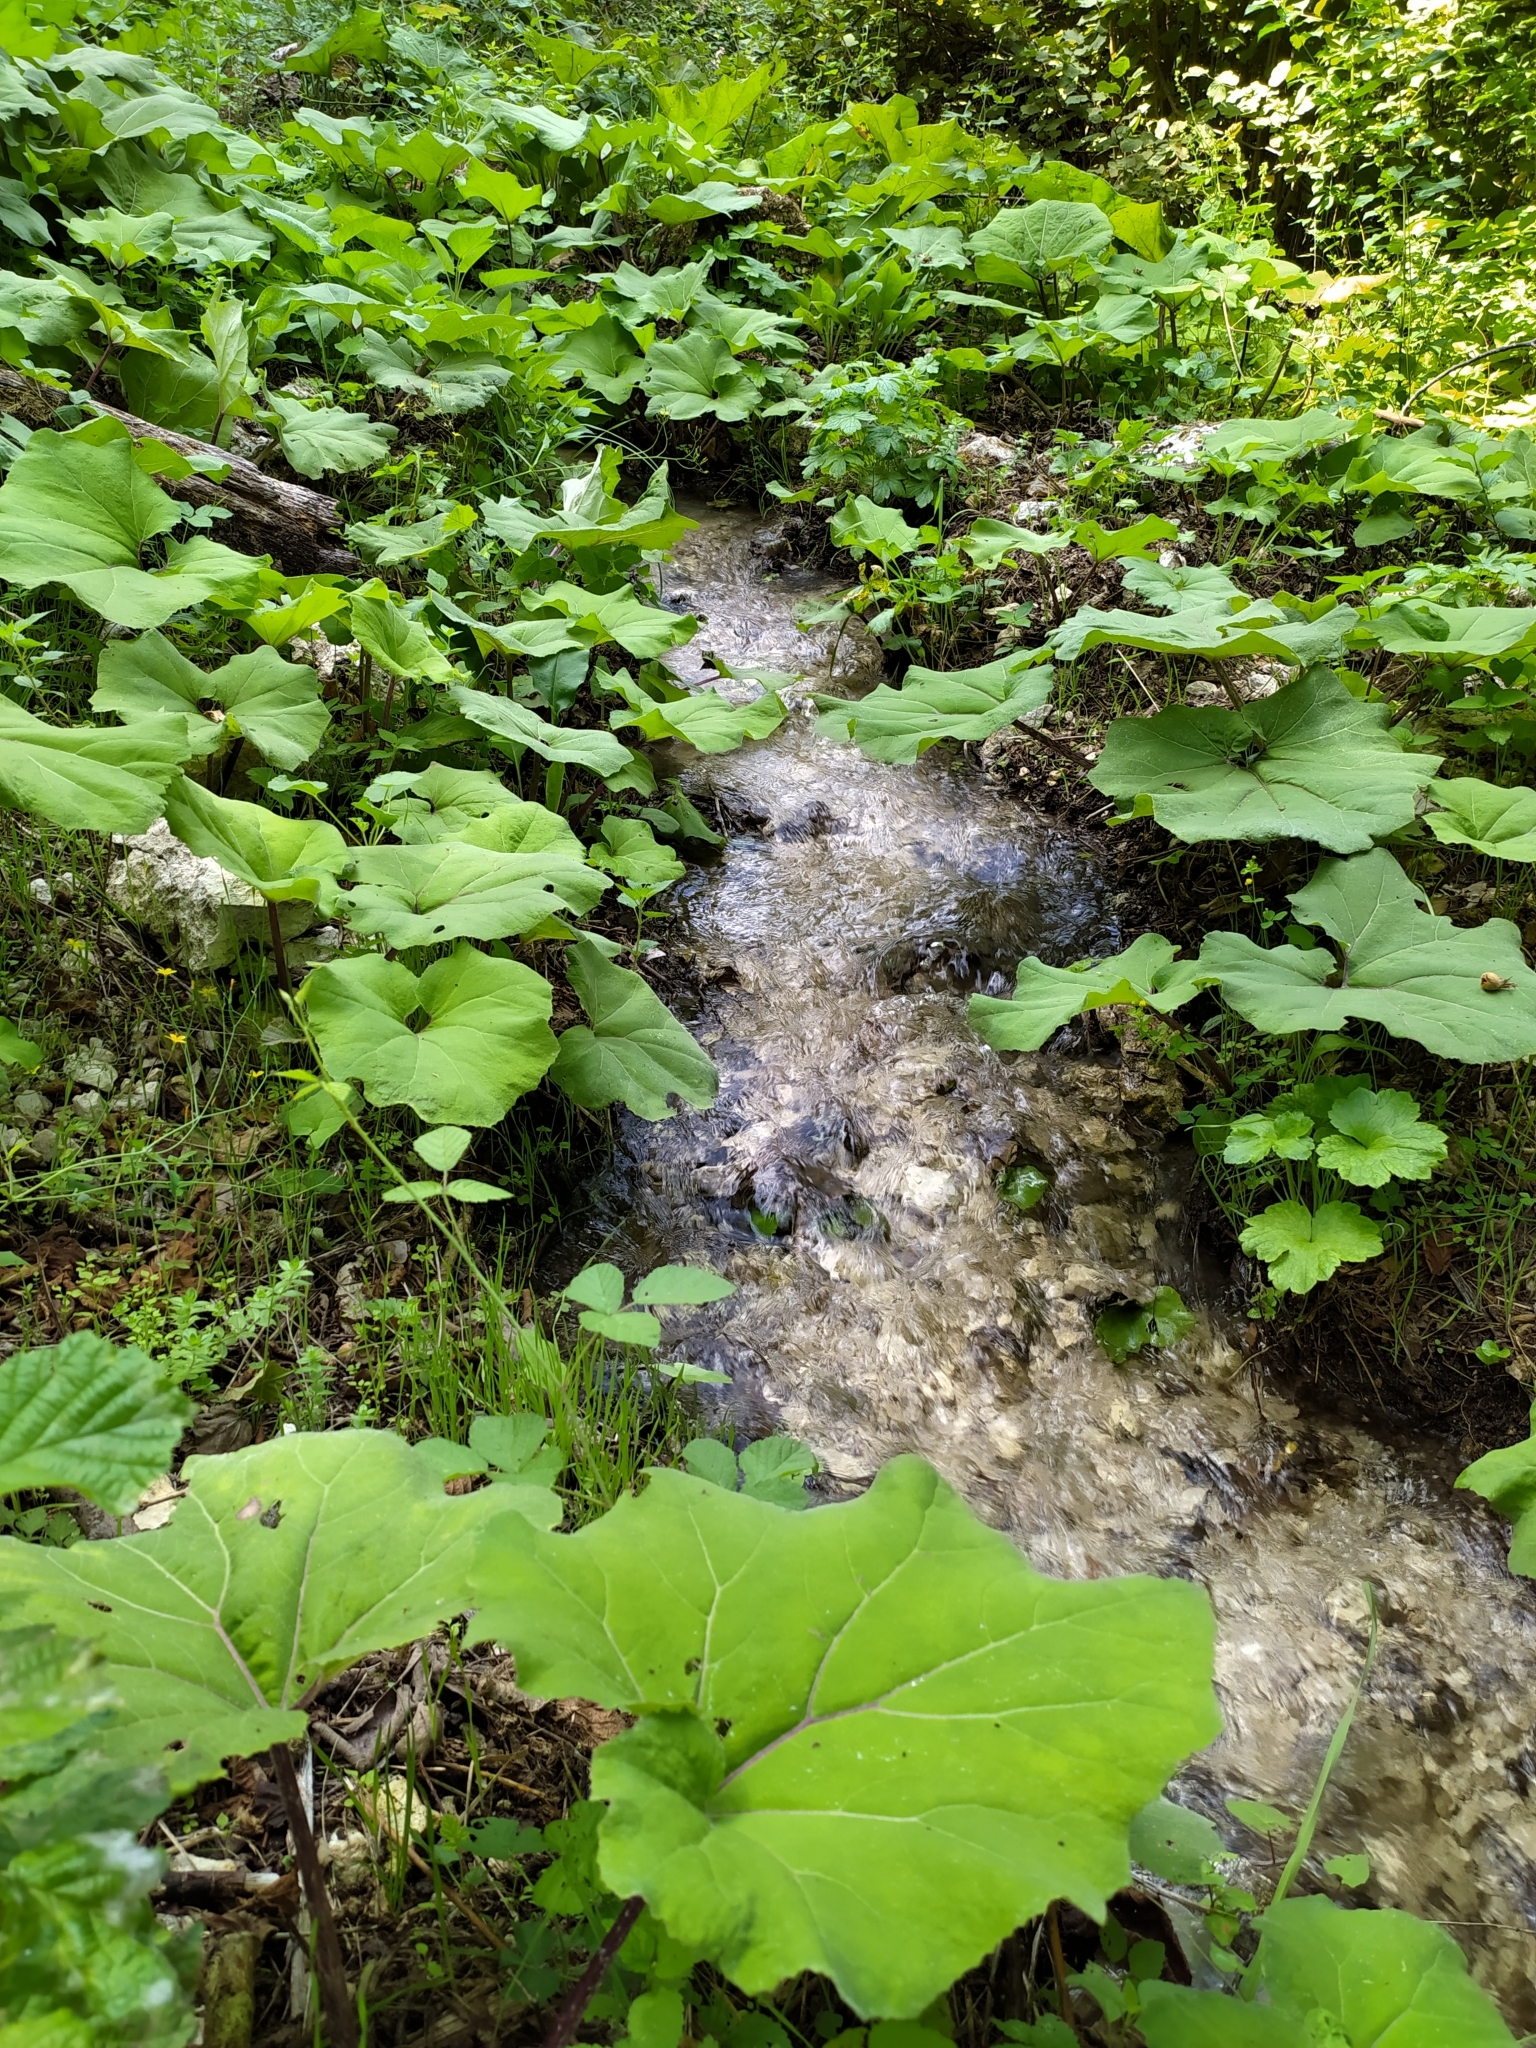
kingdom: Plantae
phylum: Tracheophyta
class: Magnoliopsida
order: Asterales
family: Asteraceae
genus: Petasites
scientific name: Petasites hybridus
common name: Butterbur
